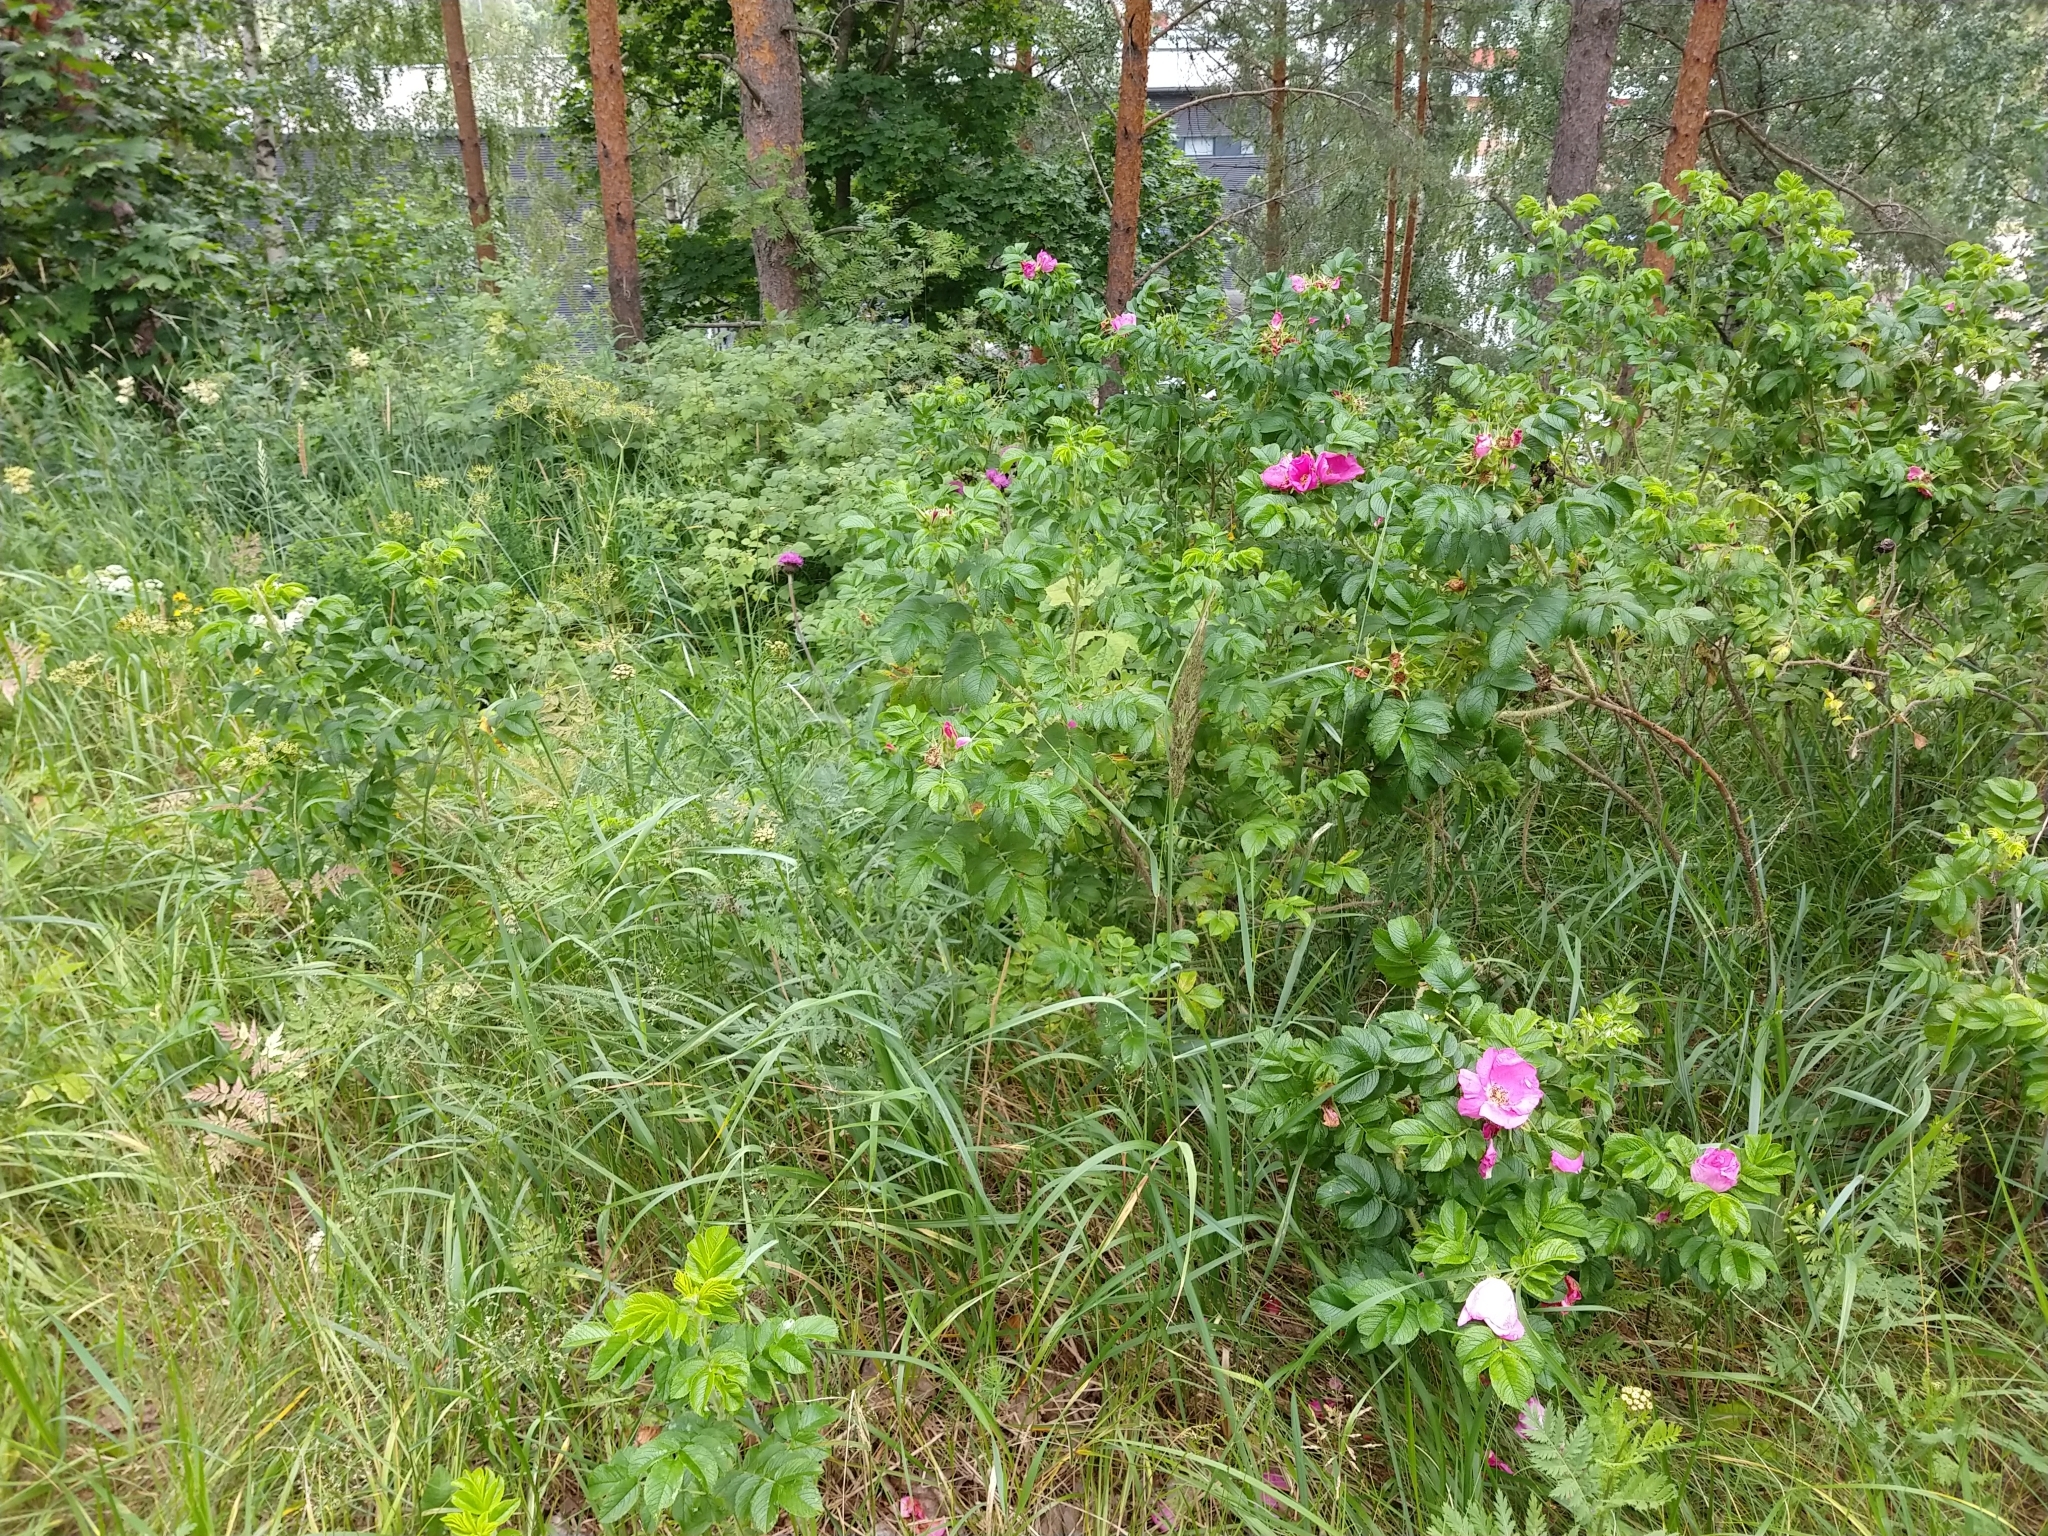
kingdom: Plantae
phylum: Tracheophyta
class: Magnoliopsida
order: Rosales
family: Rosaceae
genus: Rosa
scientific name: Rosa rugosa
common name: Japanese rose
